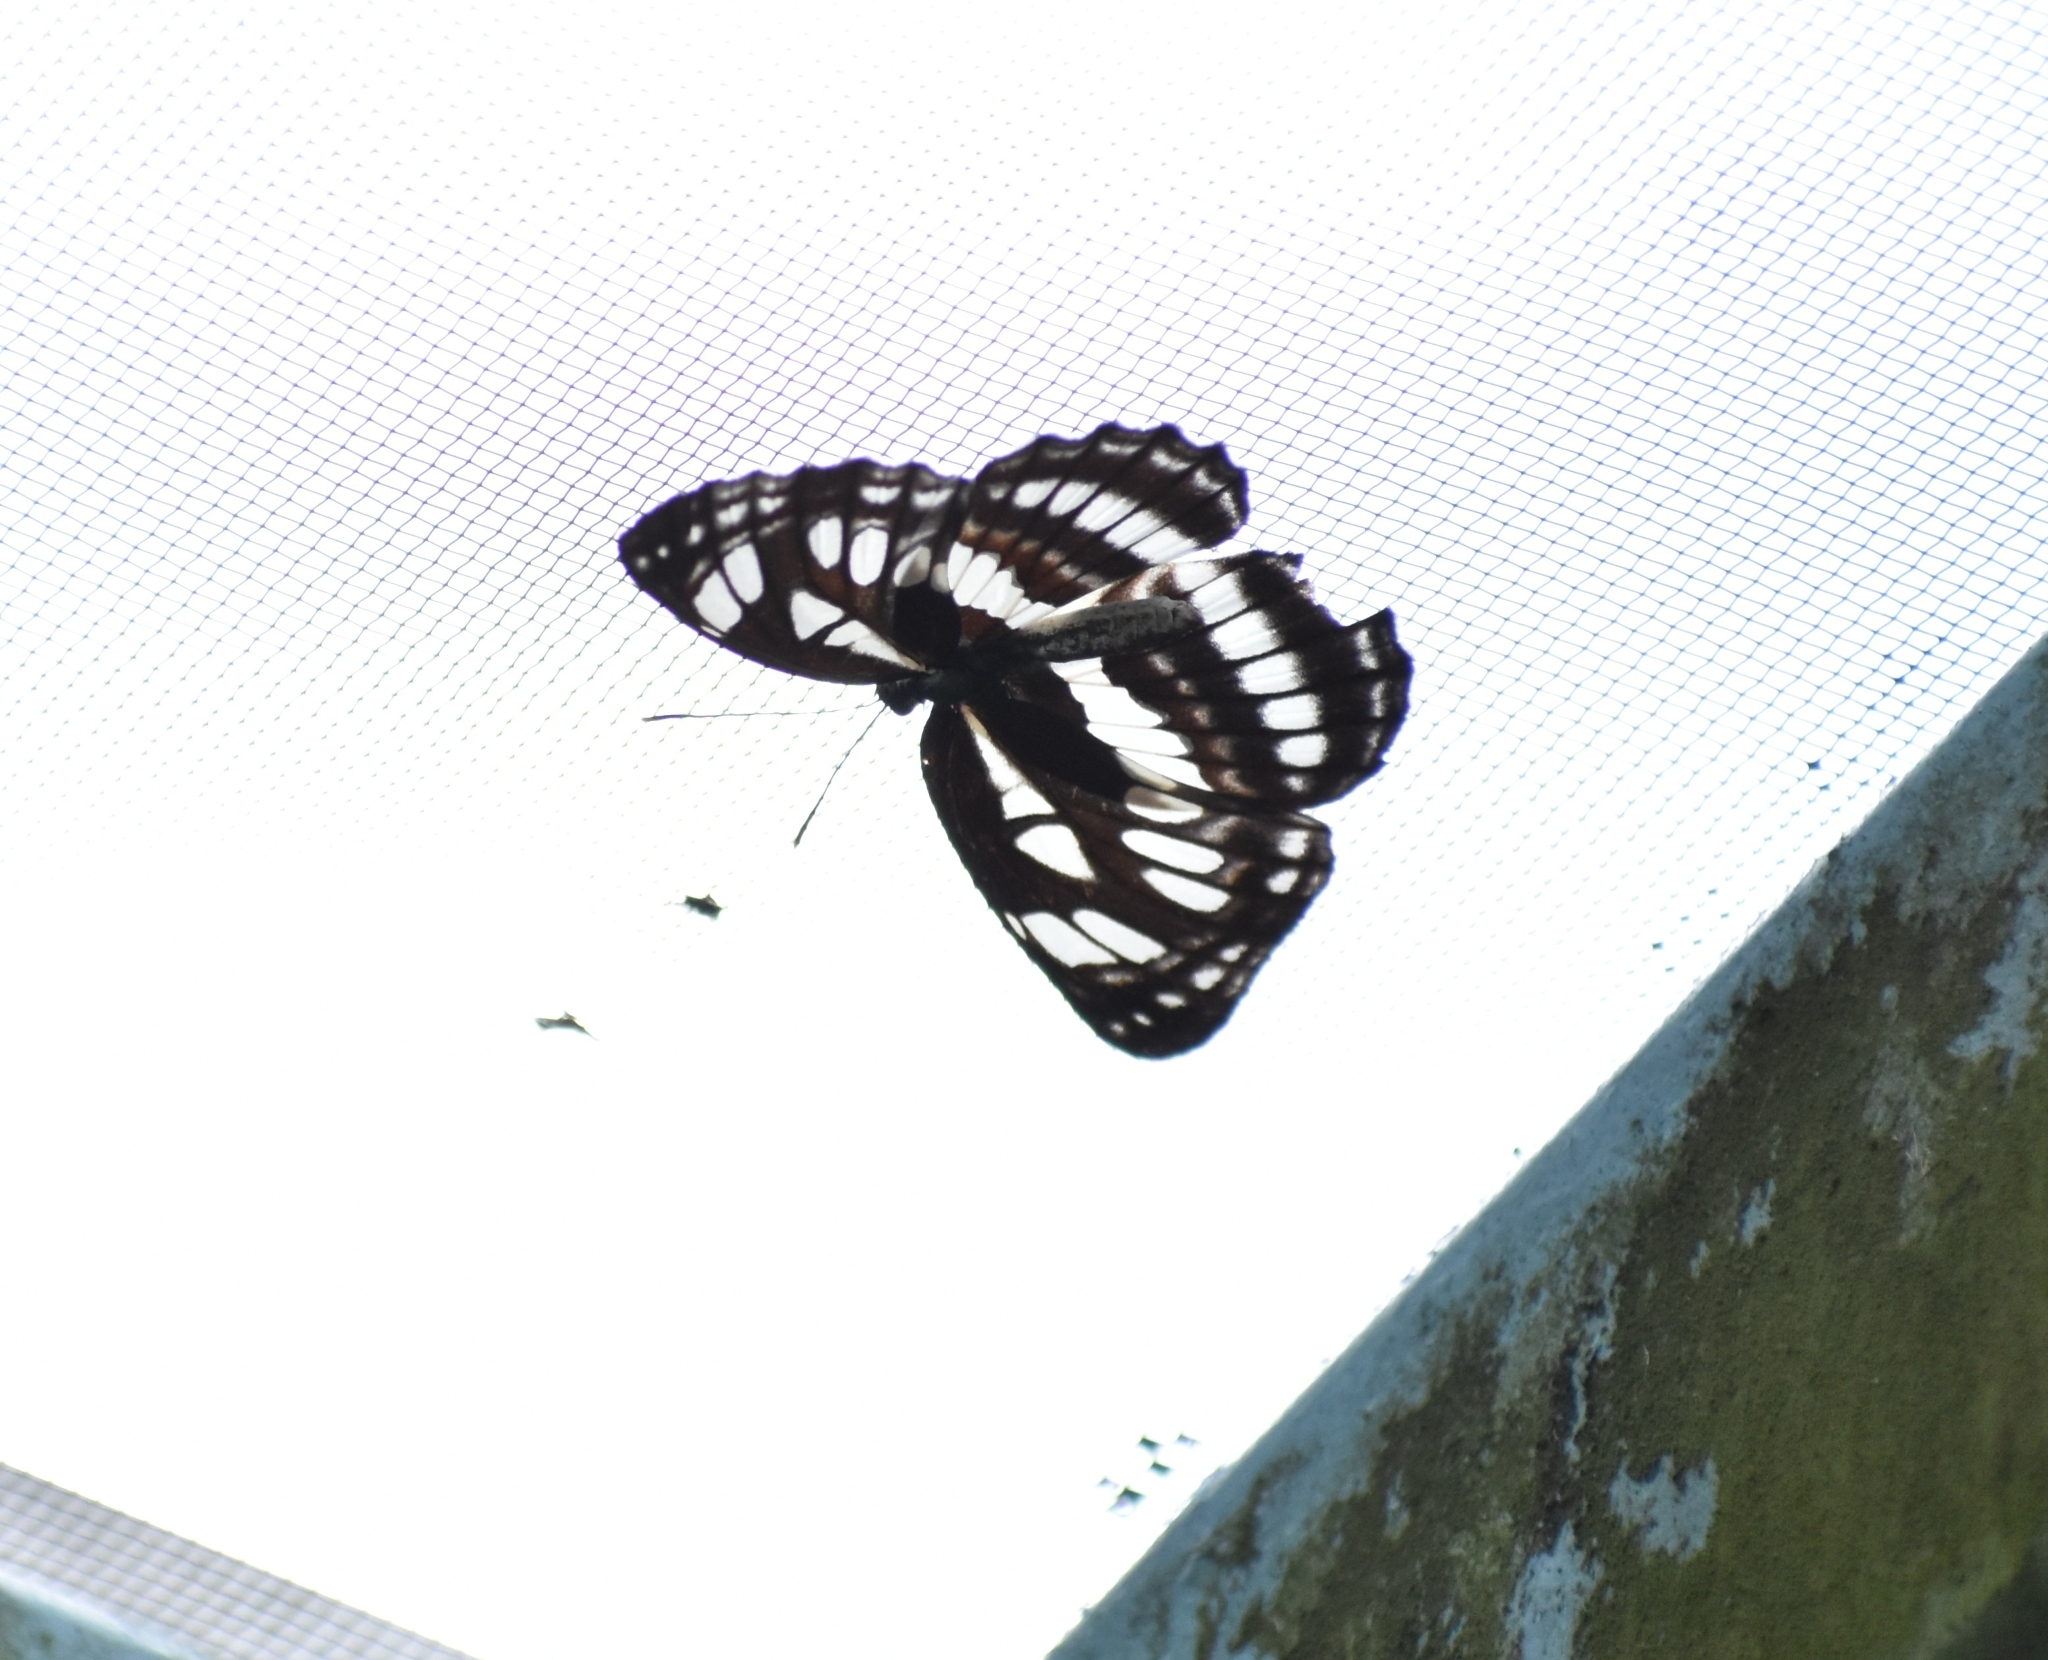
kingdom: Animalia
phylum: Arthropoda
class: Insecta
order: Lepidoptera
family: Nymphalidae
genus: Neptis
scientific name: Neptis hylas
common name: Common sailer
